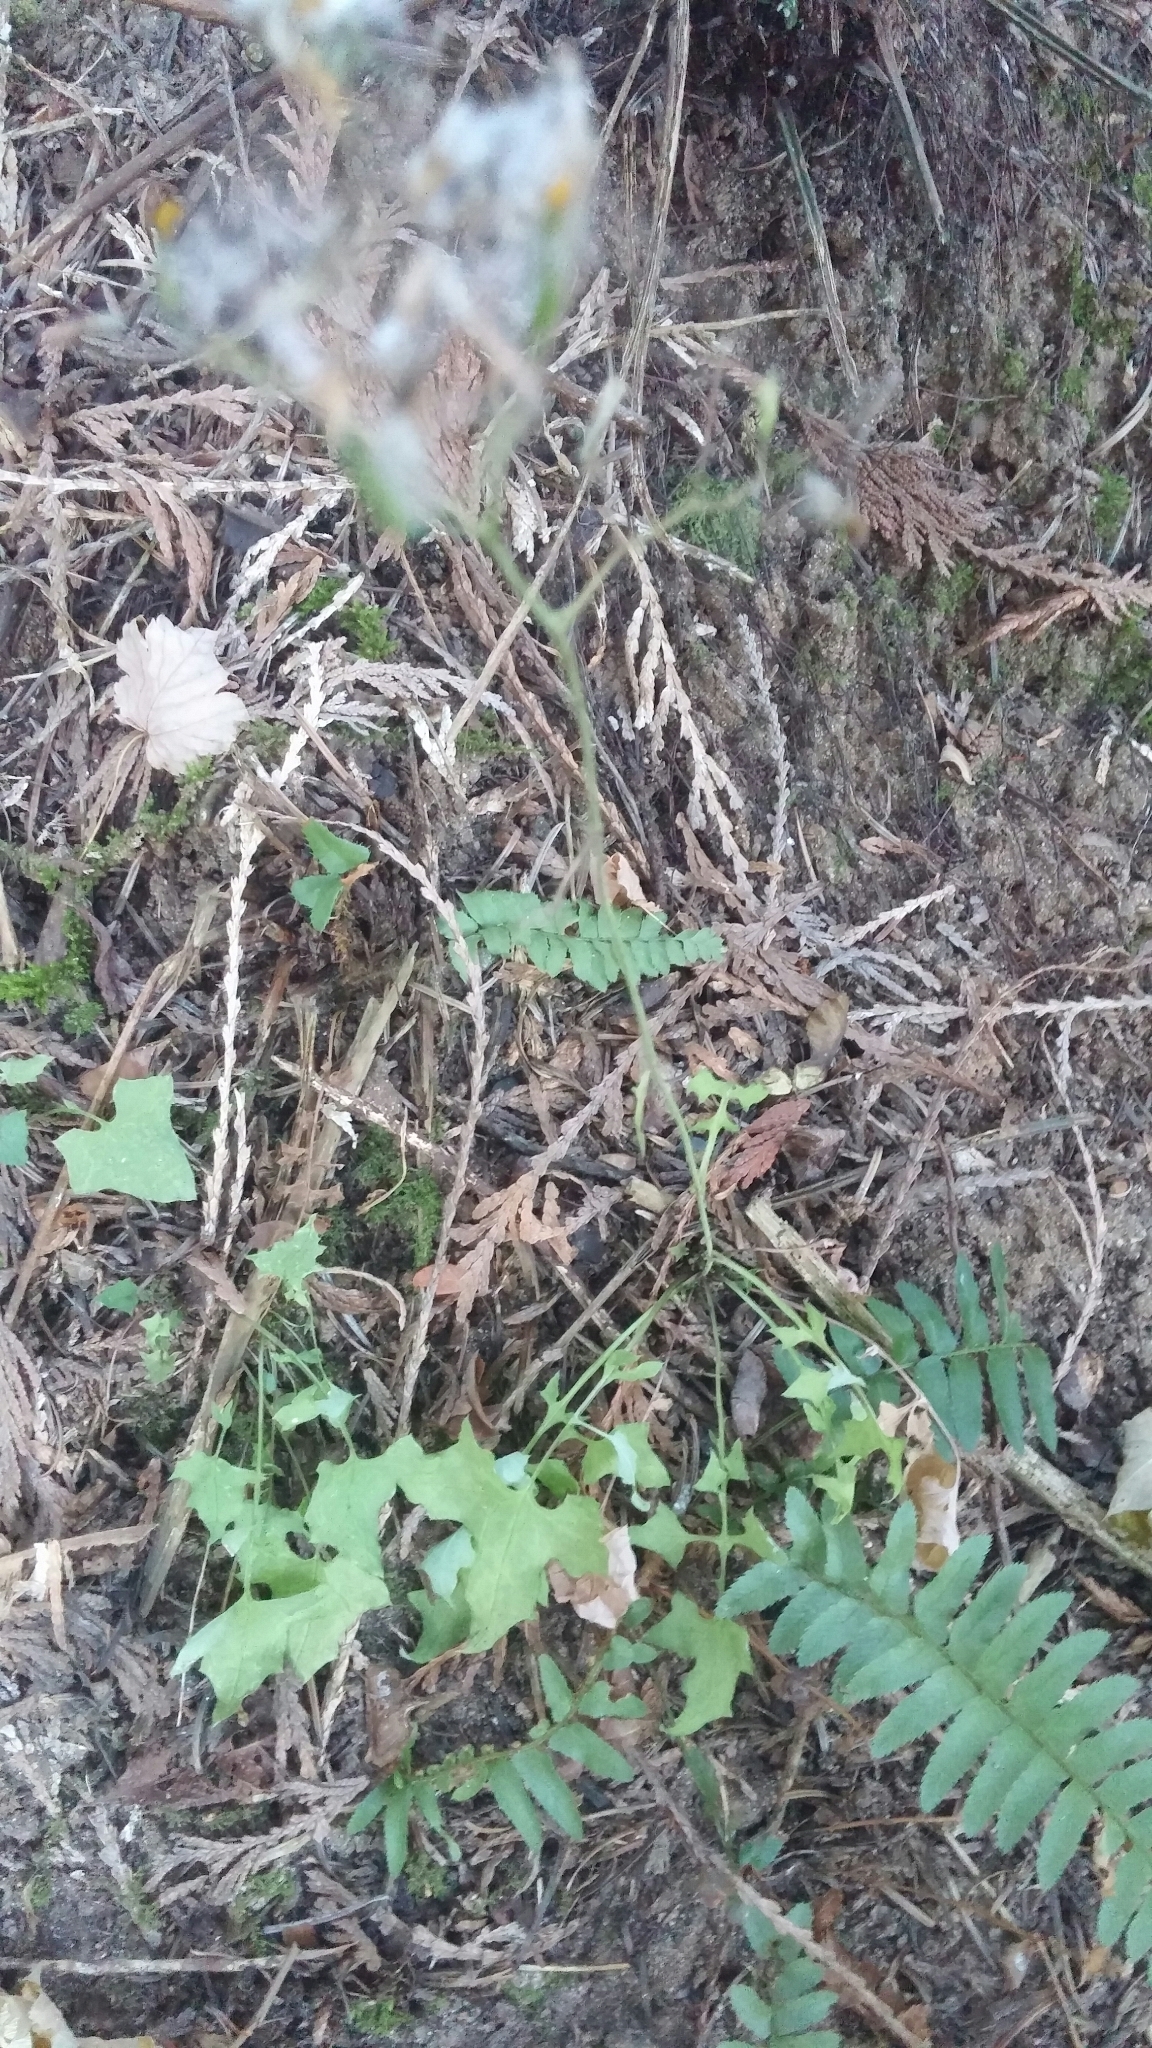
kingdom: Plantae
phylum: Tracheophyta
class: Magnoliopsida
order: Asterales
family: Asteraceae
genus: Mycelis
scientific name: Mycelis muralis
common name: Wall lettuce
